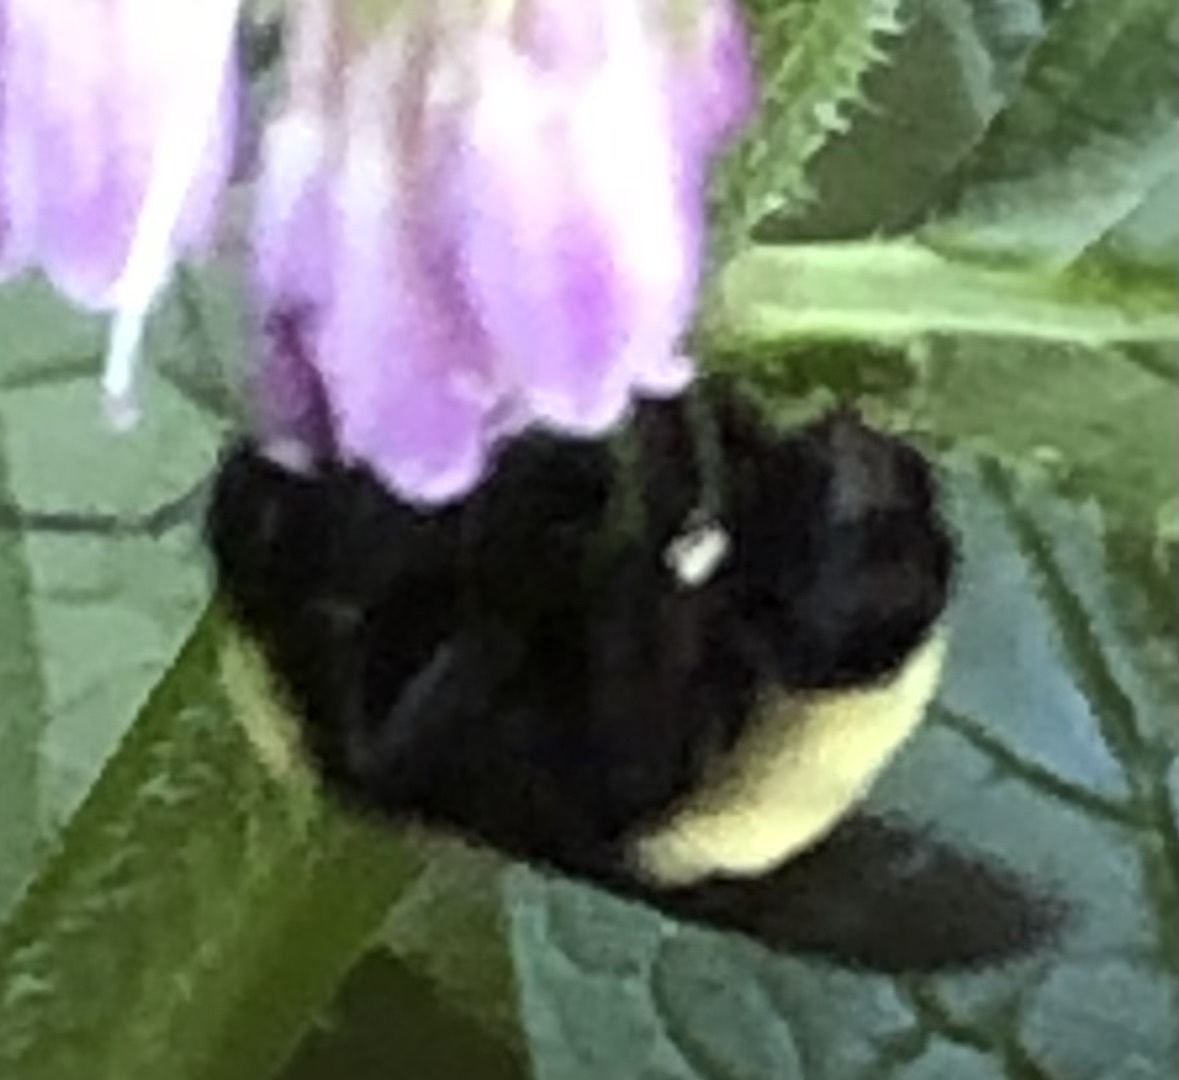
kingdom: Animalia
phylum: Arthropoda
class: Insecta
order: Hymenoptera
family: Apidae
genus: Bombus
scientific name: Bombus pensylvanicus
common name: Bumble bee
